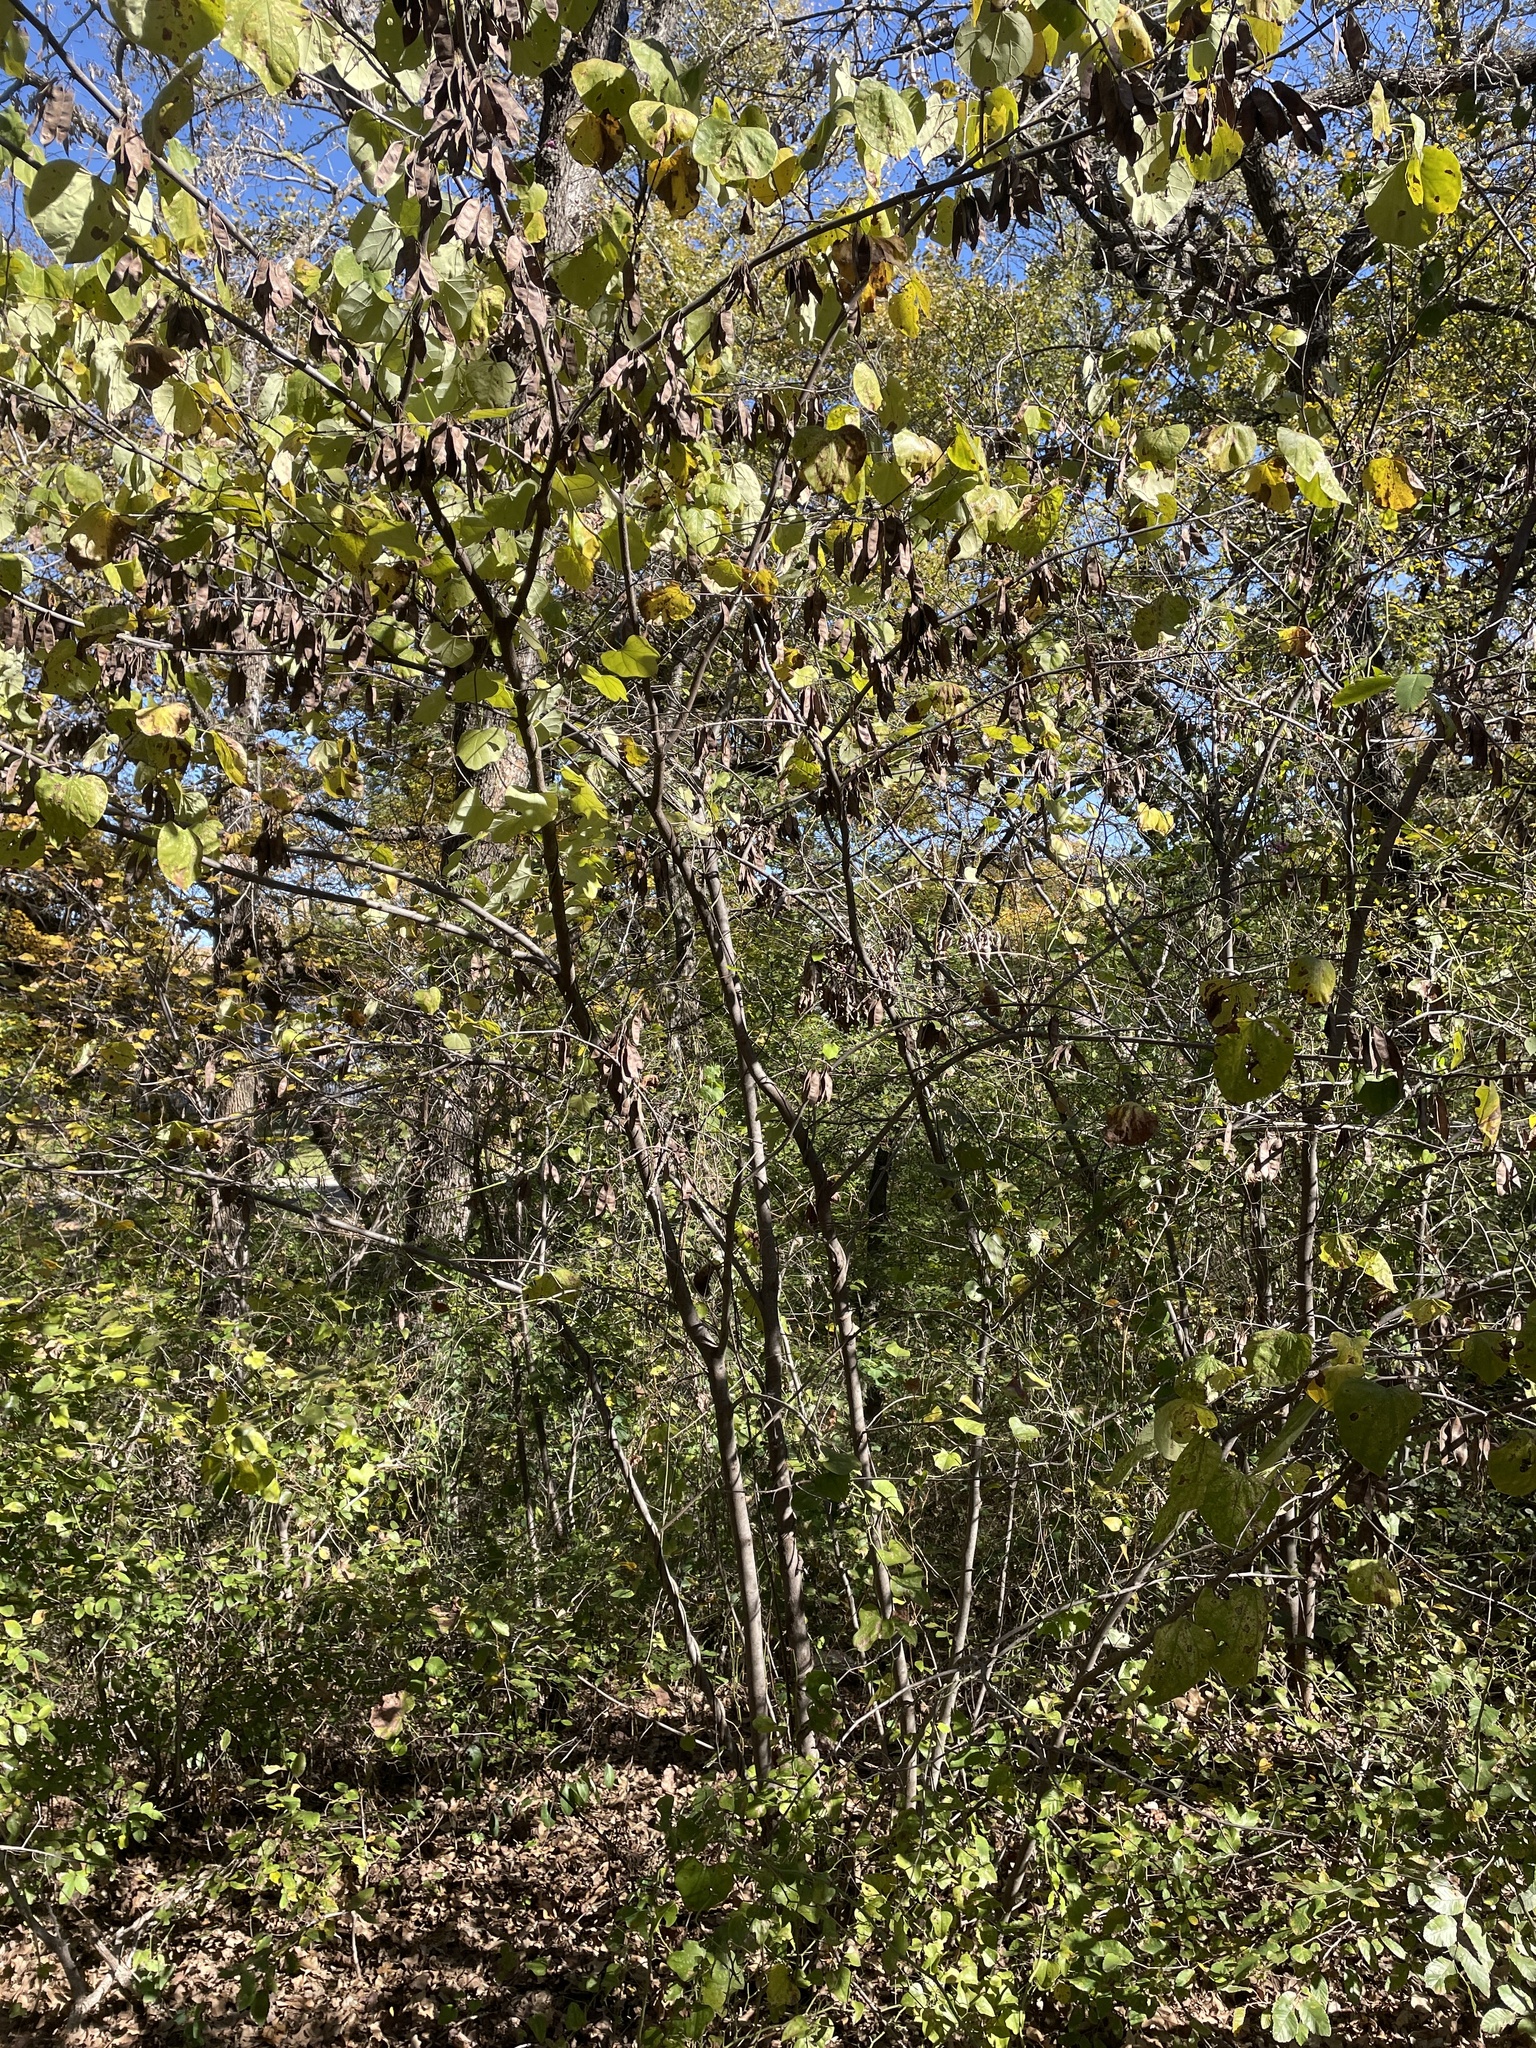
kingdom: Plantae
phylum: Tracheophyta
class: Magnoliopsida
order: Fabales
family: Fabaceae
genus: Cercis
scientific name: Cercis canadensis
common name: Eastern redbud
